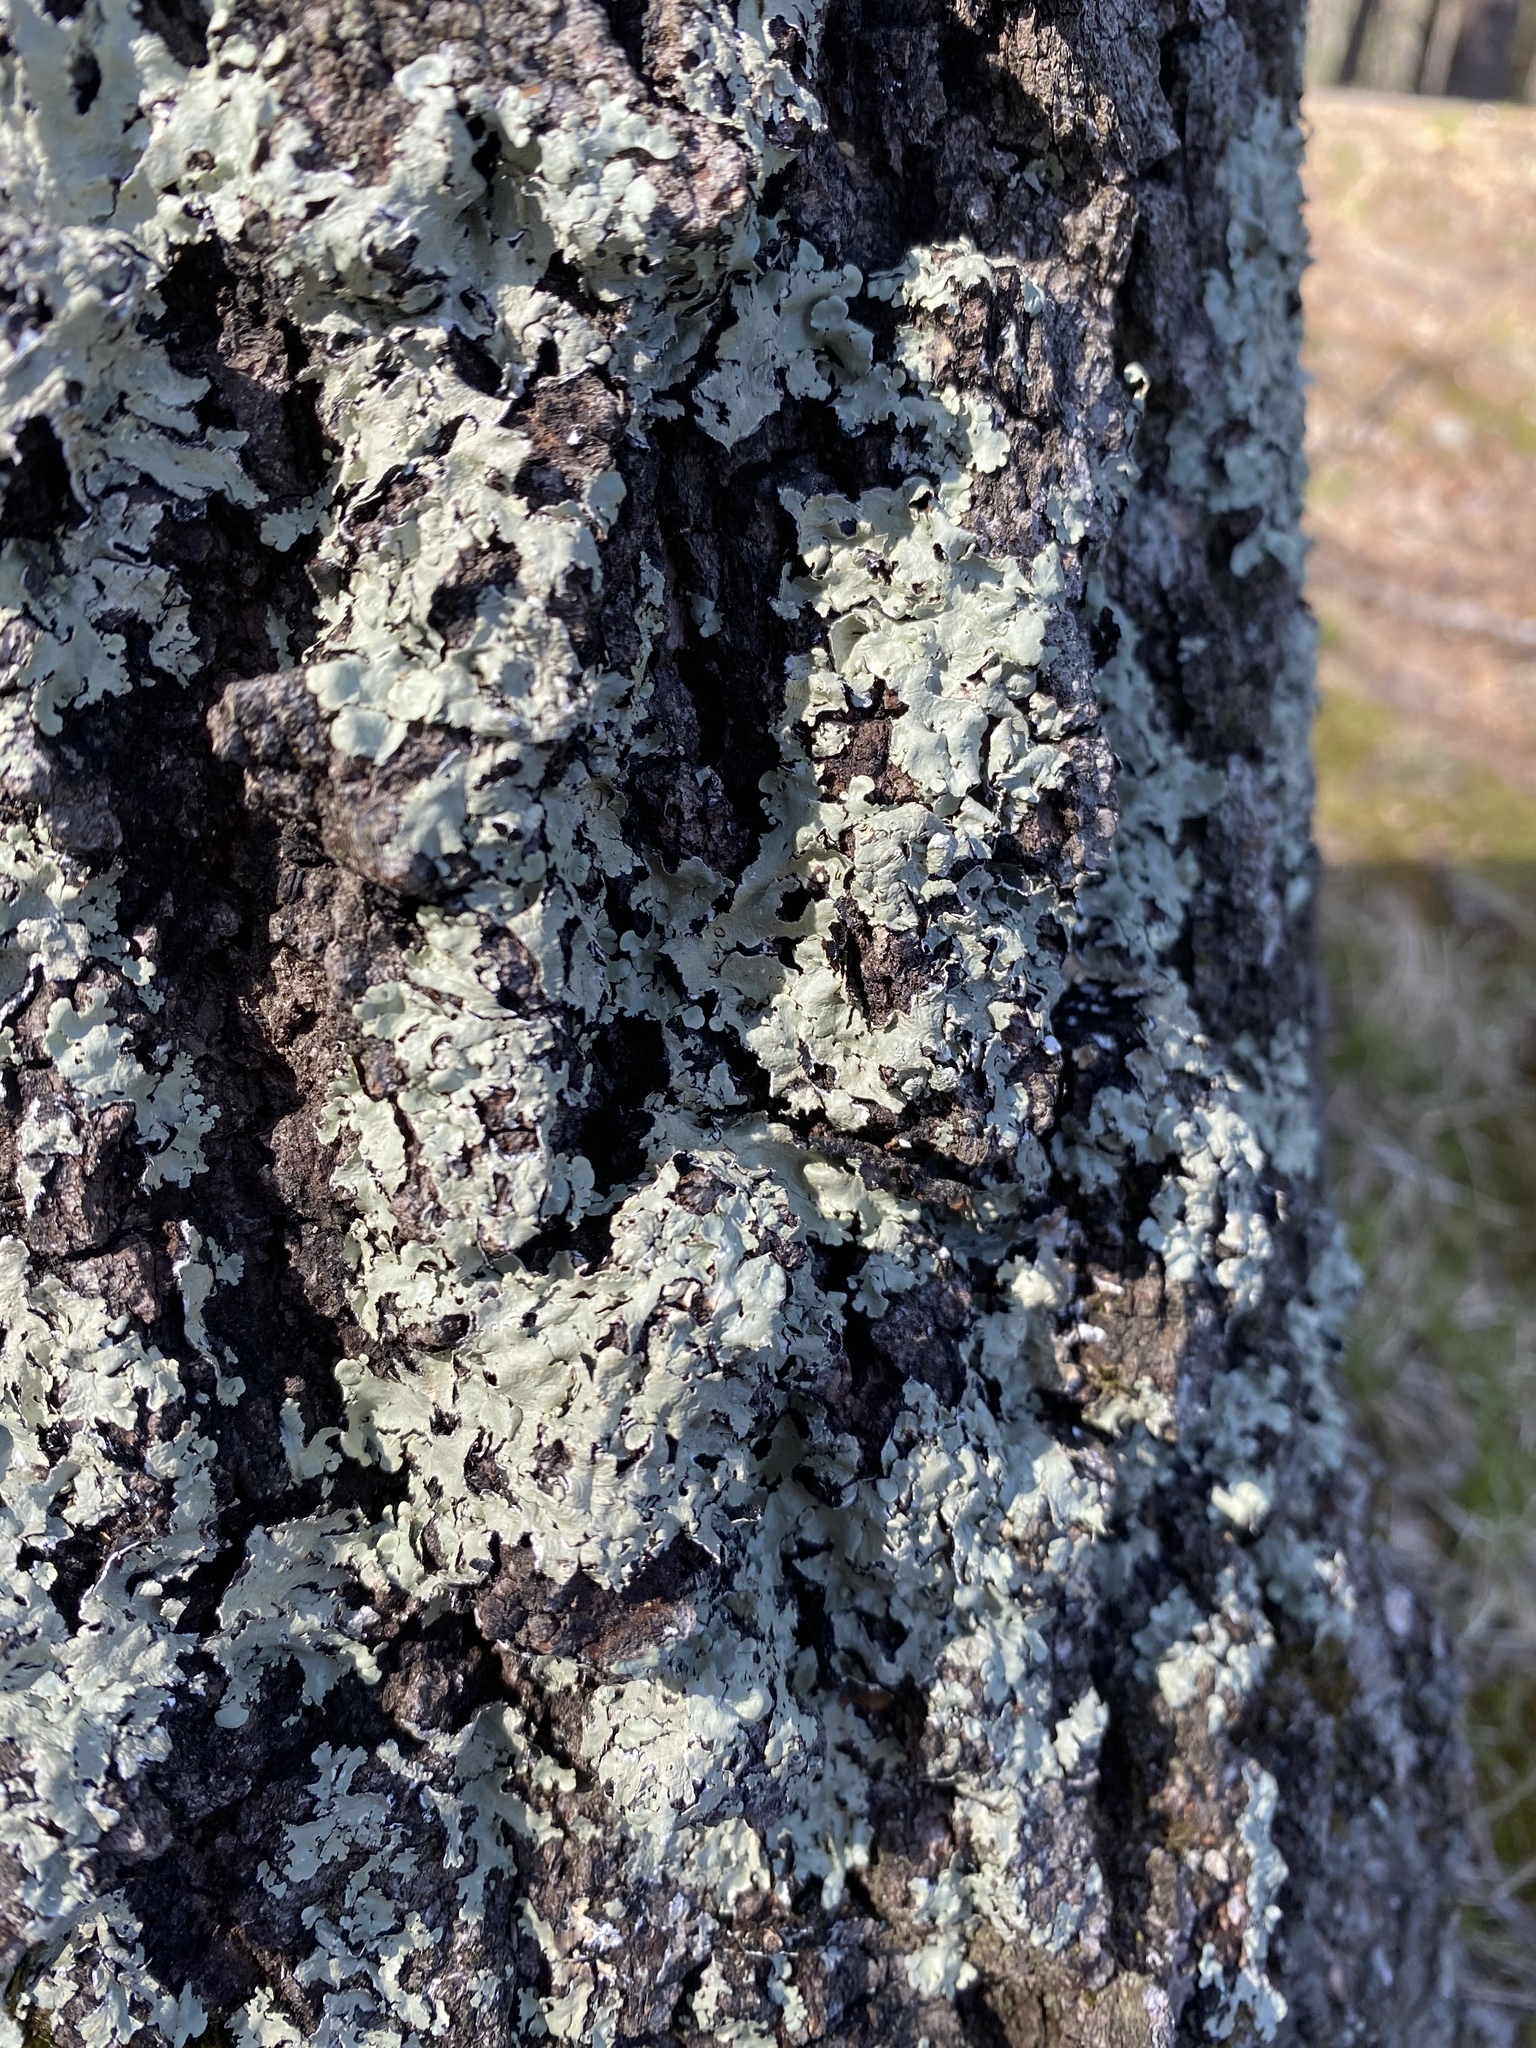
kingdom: Fungi
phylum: Ascomycota
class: Lecanoromycetes
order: Lecanorales
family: Parmeliaceae
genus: Flavoparmelia
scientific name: Flavoparmelia caperata
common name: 40-mile per hour lichen
